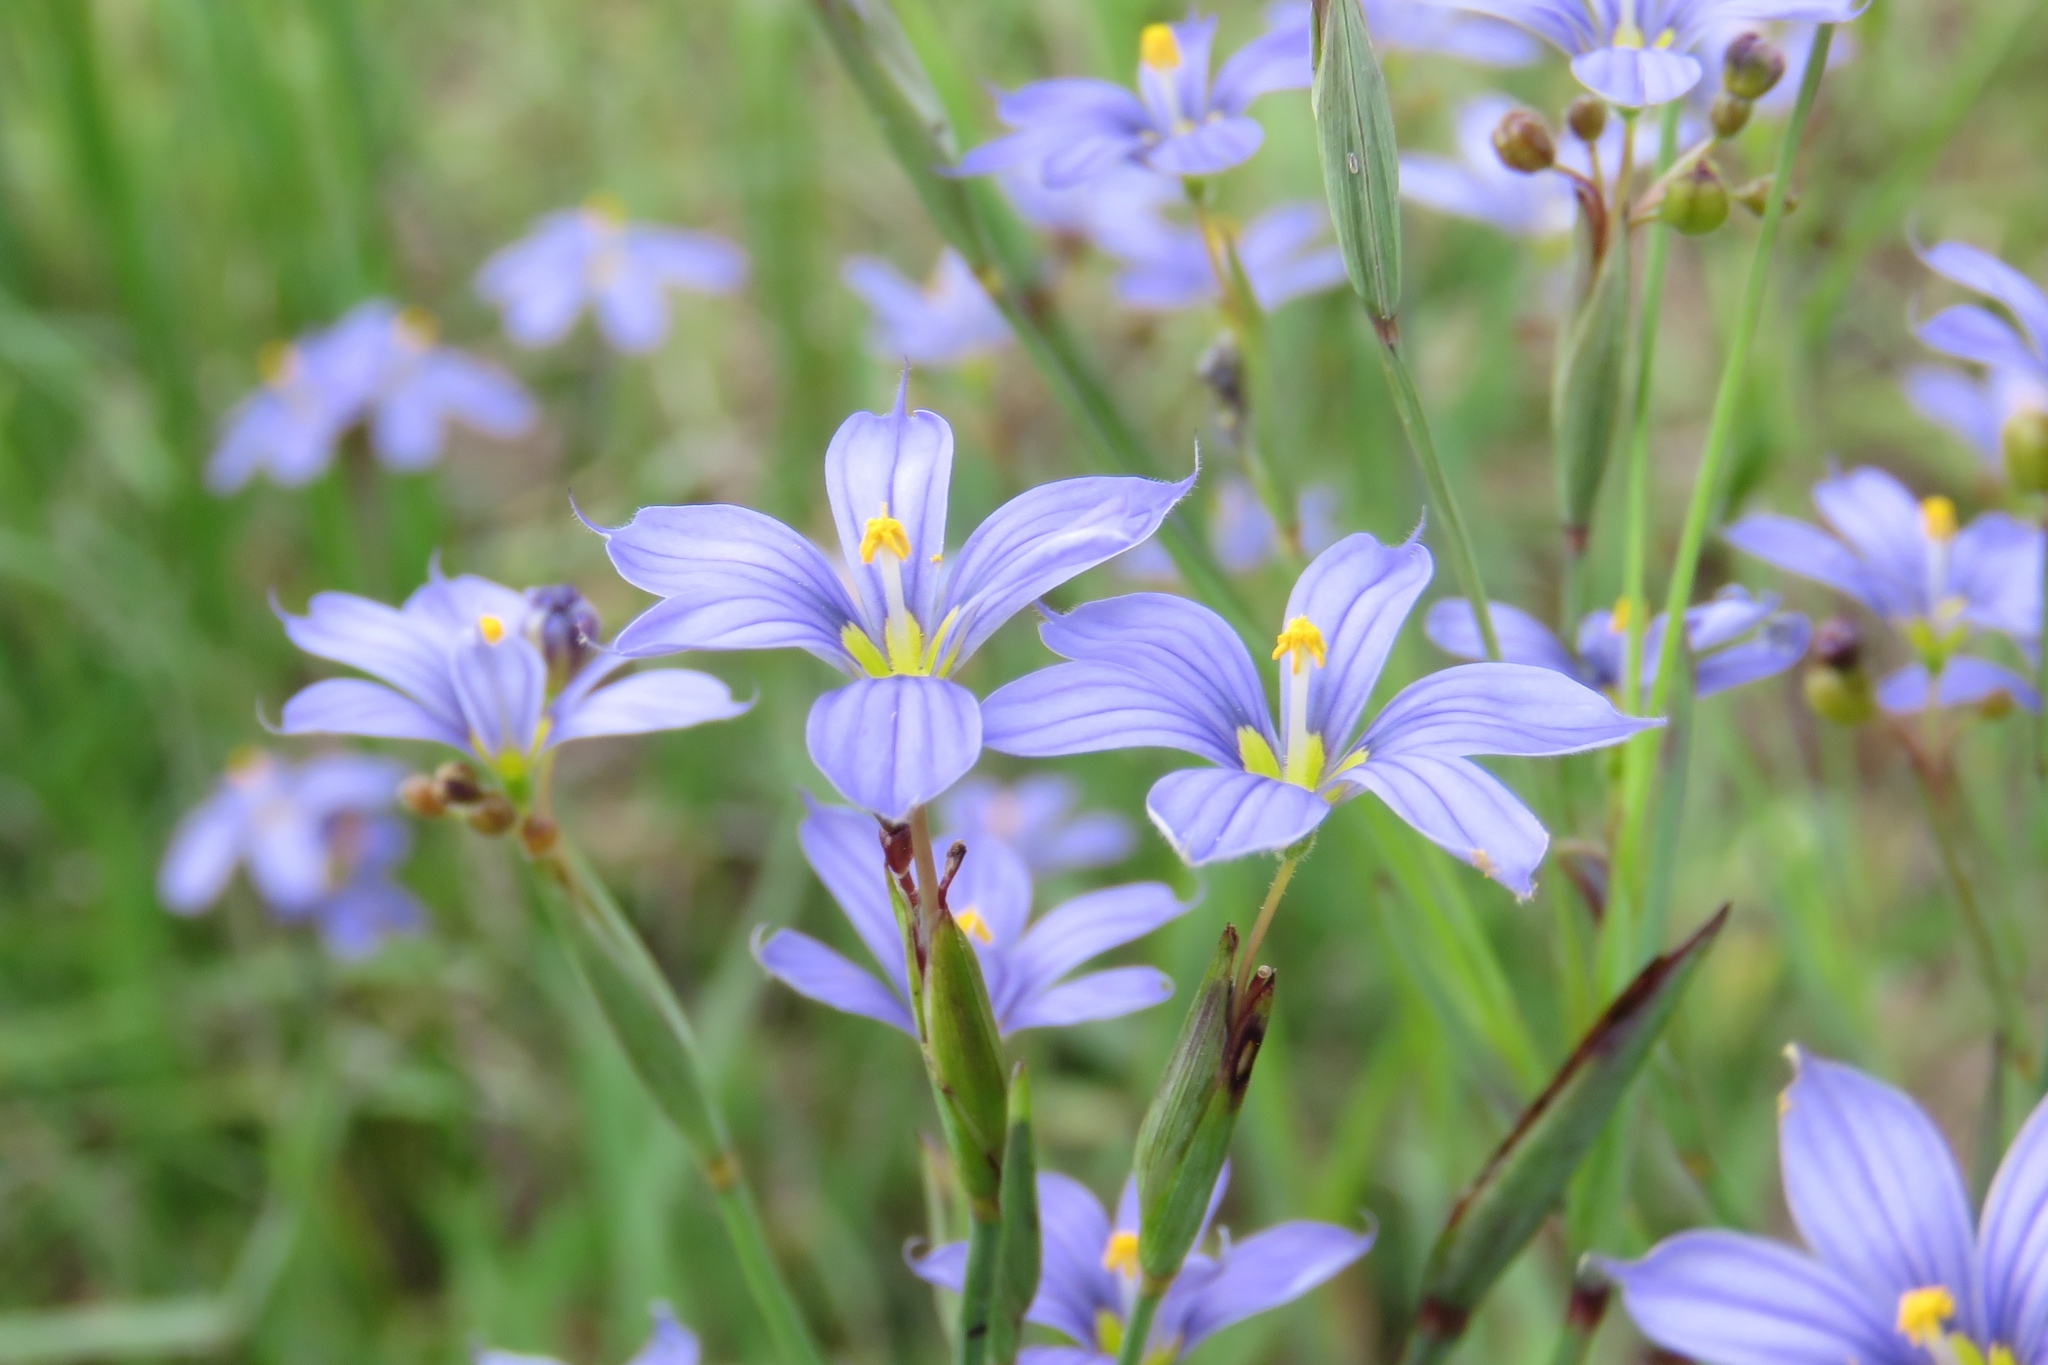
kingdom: Plantae
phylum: Tracheophyta
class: Liliopsida
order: Asparagales
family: Iridaceae
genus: Sisyrinchium
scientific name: Sisyrinchium atlanticum
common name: Eastern blue-eyed-grass
